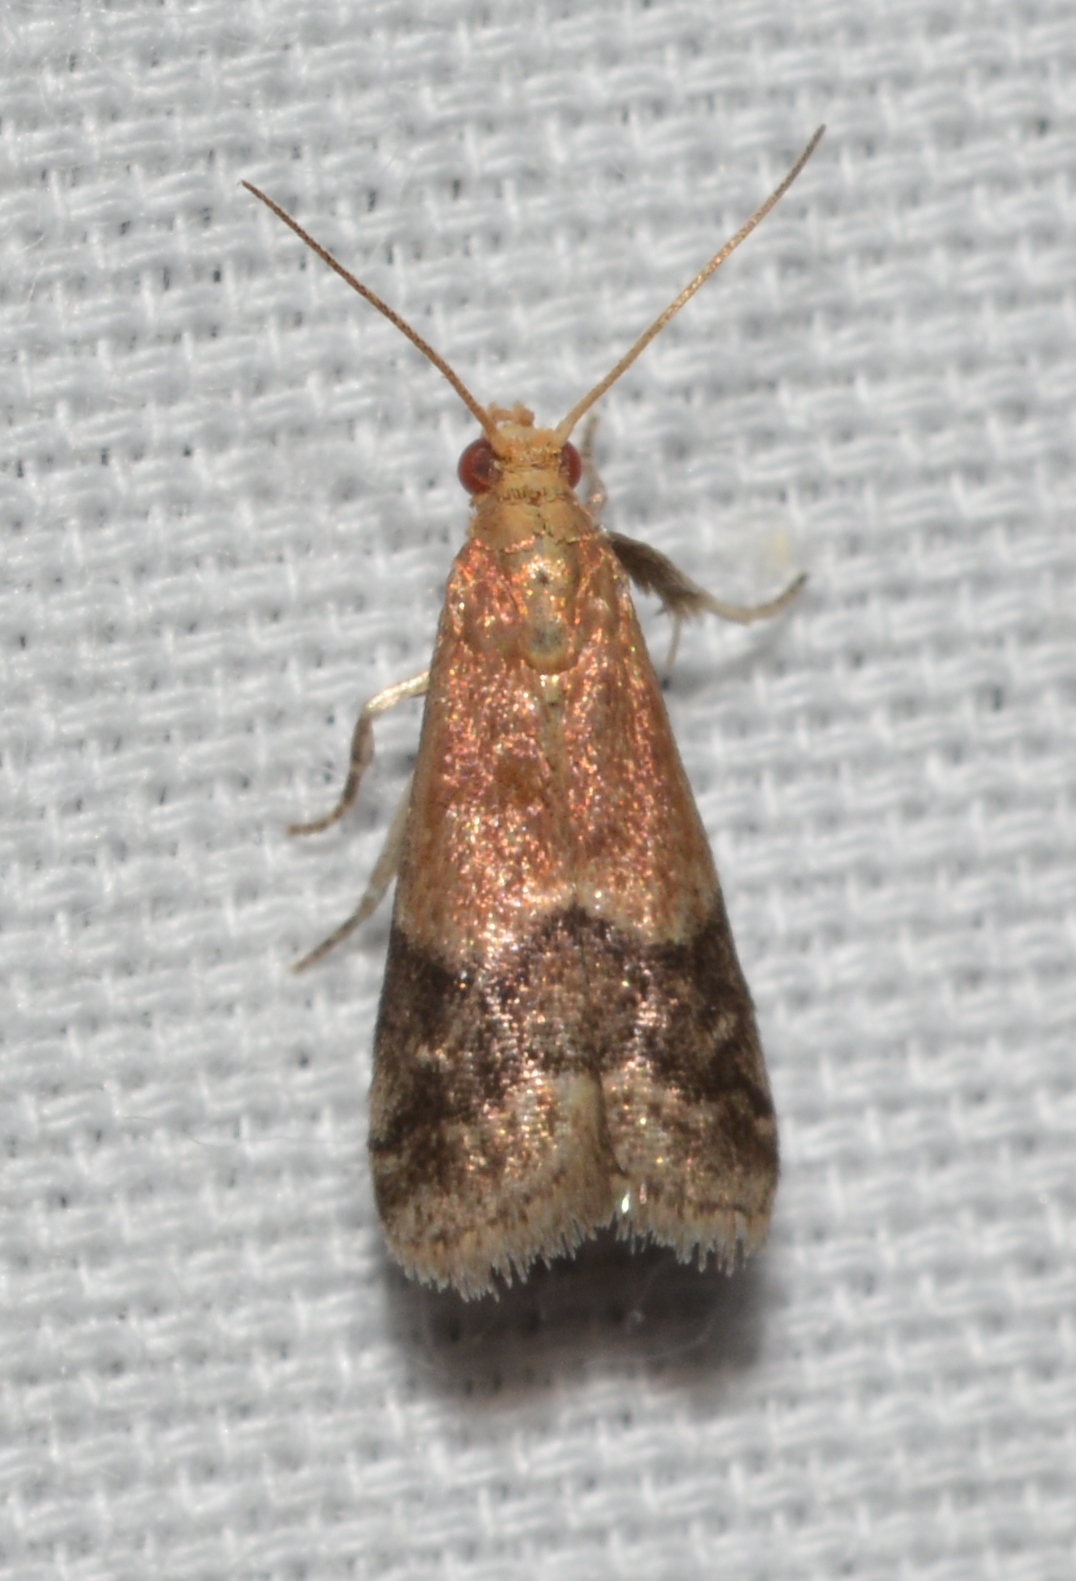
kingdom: Animalia
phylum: Arthropoda
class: Insecta
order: Lepidoptera
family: Pyralidae
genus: Eulogia
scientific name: Eulogia ochrifrontella
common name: Broad-banded eulogia moth
